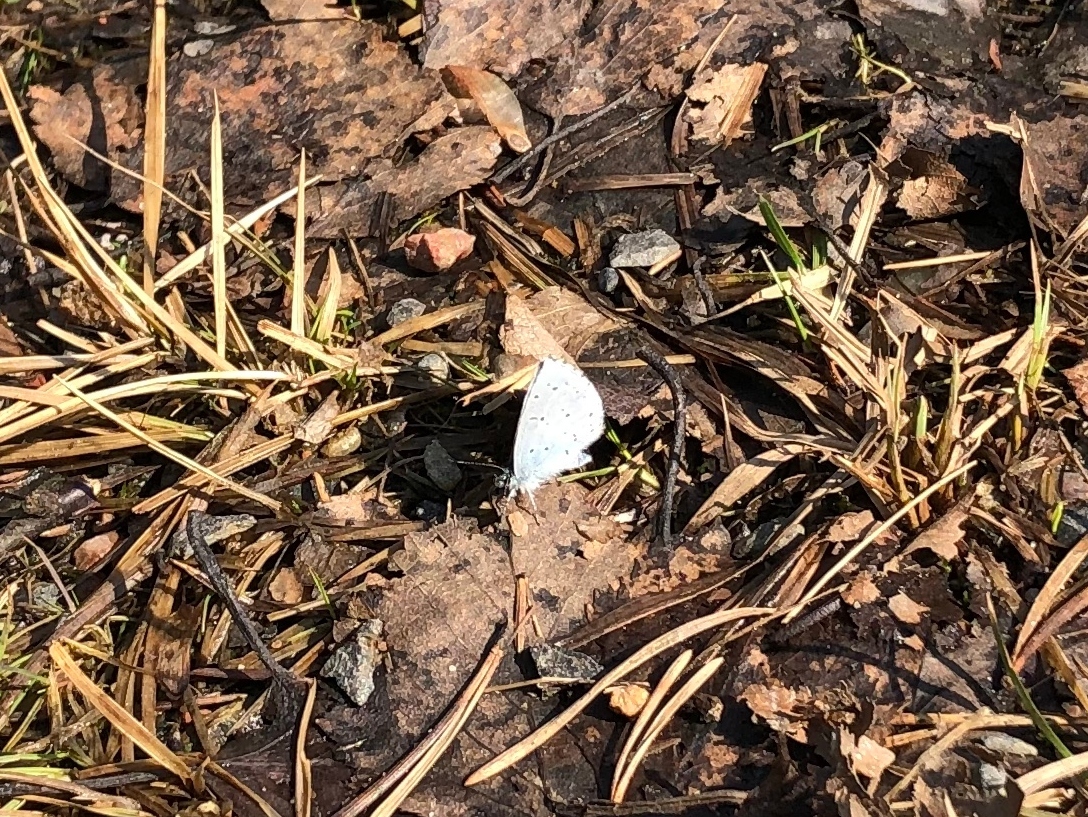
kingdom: Animalia
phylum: Arthropoda
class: Insecta
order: Lepidoptera
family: Lycaenidae
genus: Celastrina
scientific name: Celastrina argiolus
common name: Holly blue
